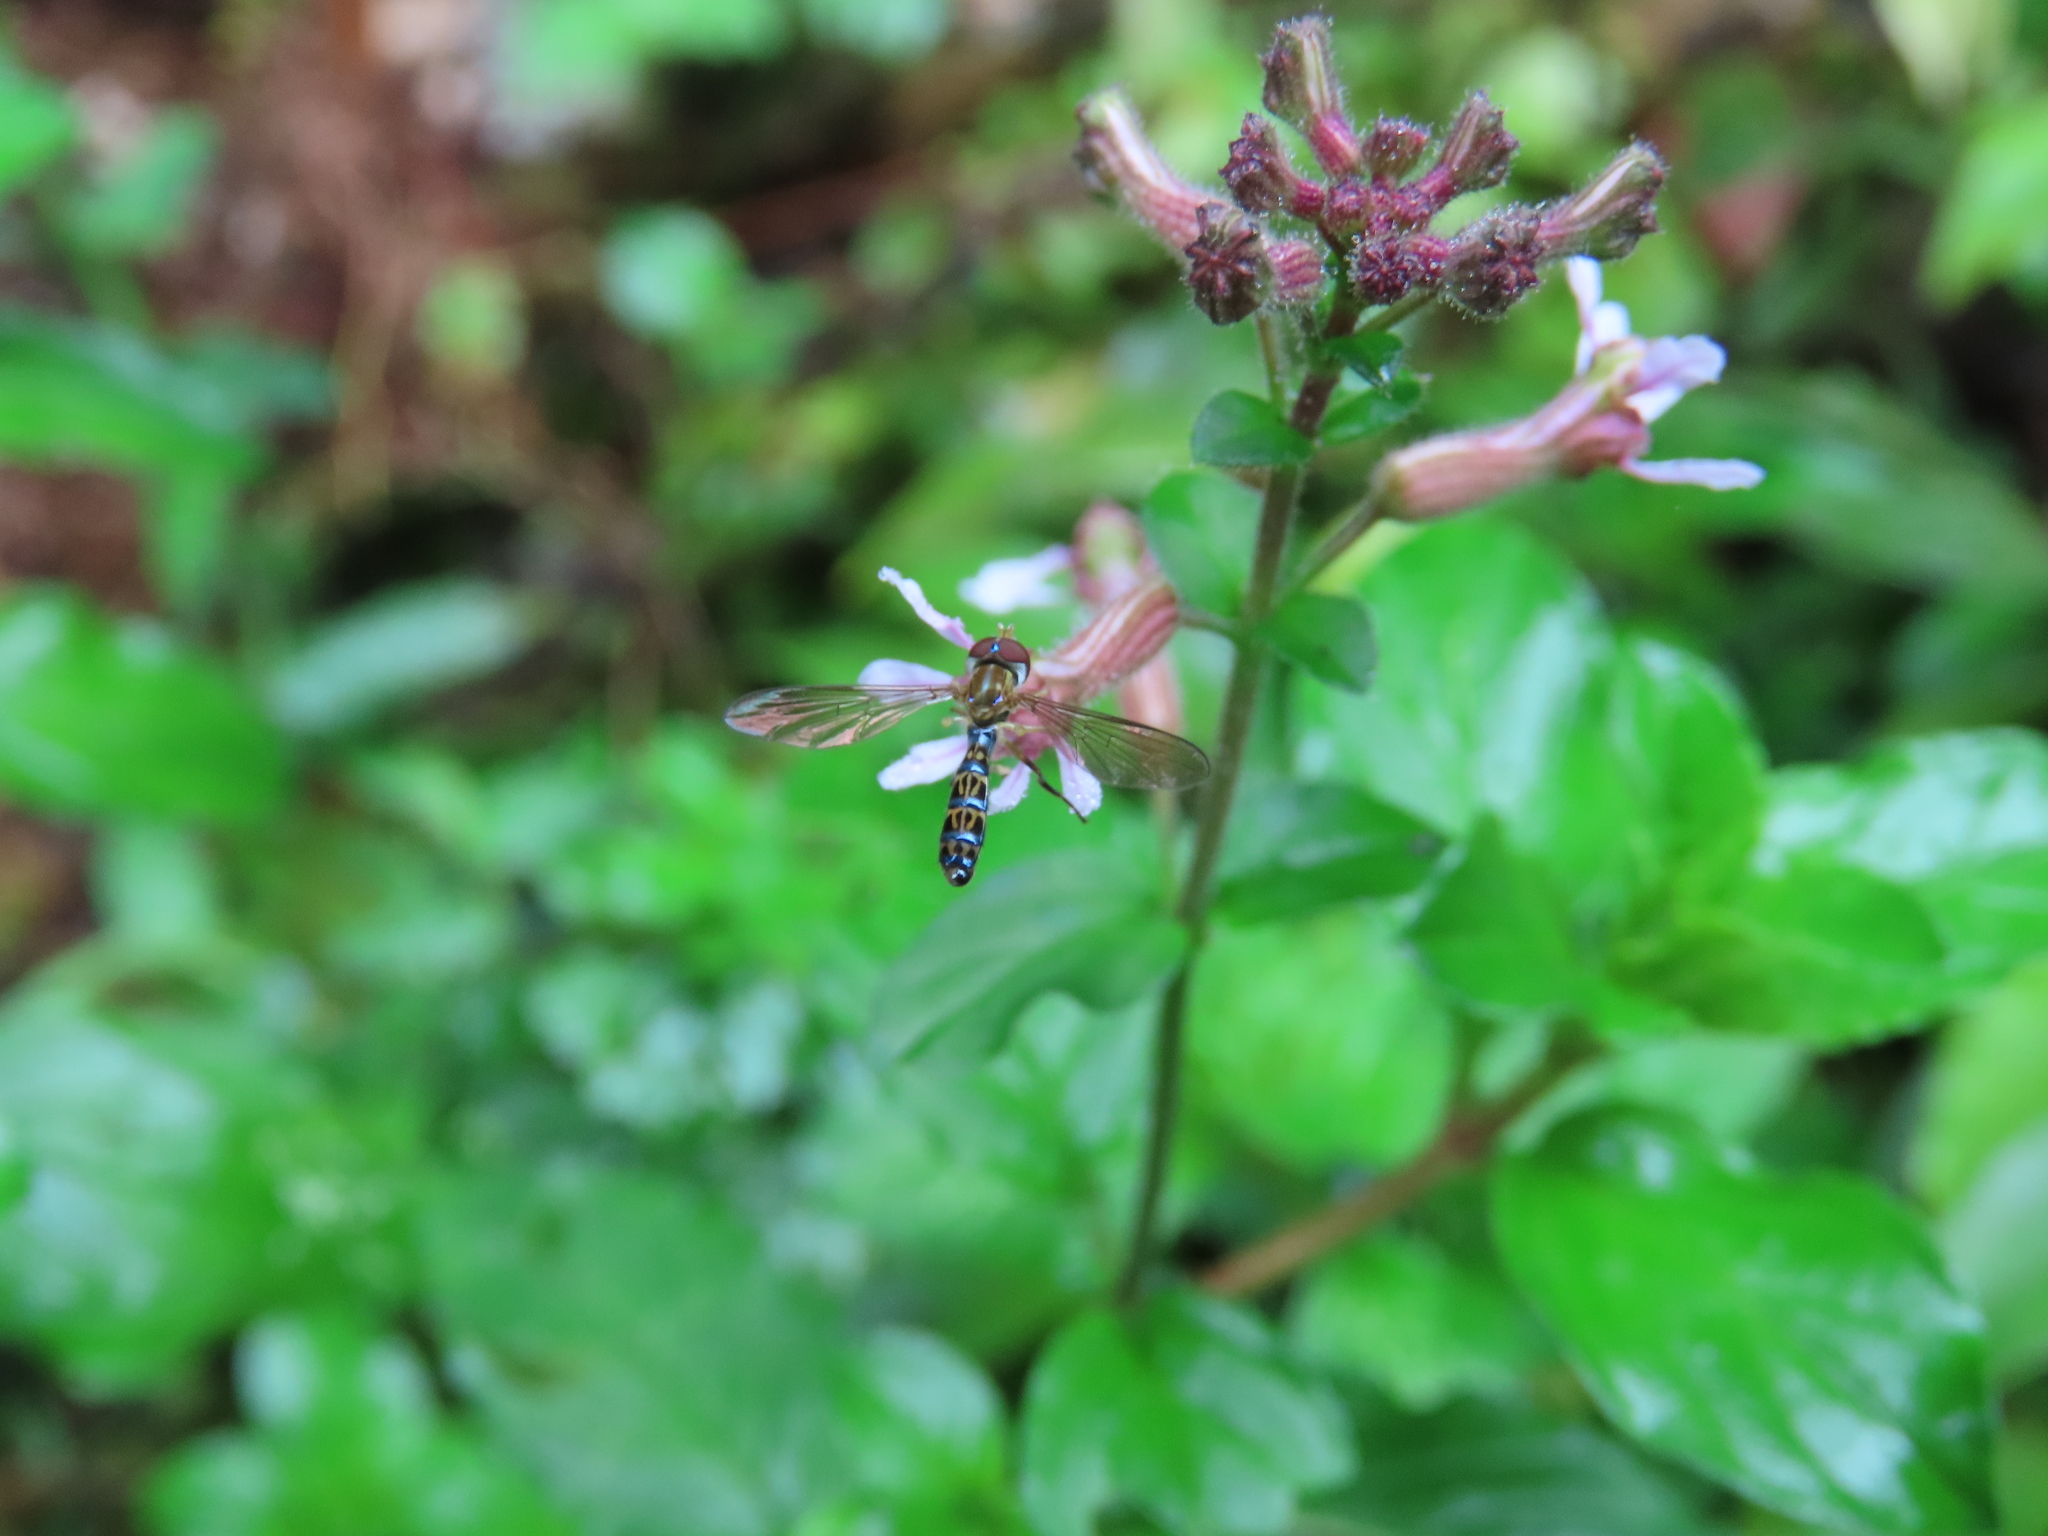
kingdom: Animalia
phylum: Arthropoda
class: Insecta
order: Diptera
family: Syrphidae
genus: Toxomerus
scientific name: Toxomerus nasutus
